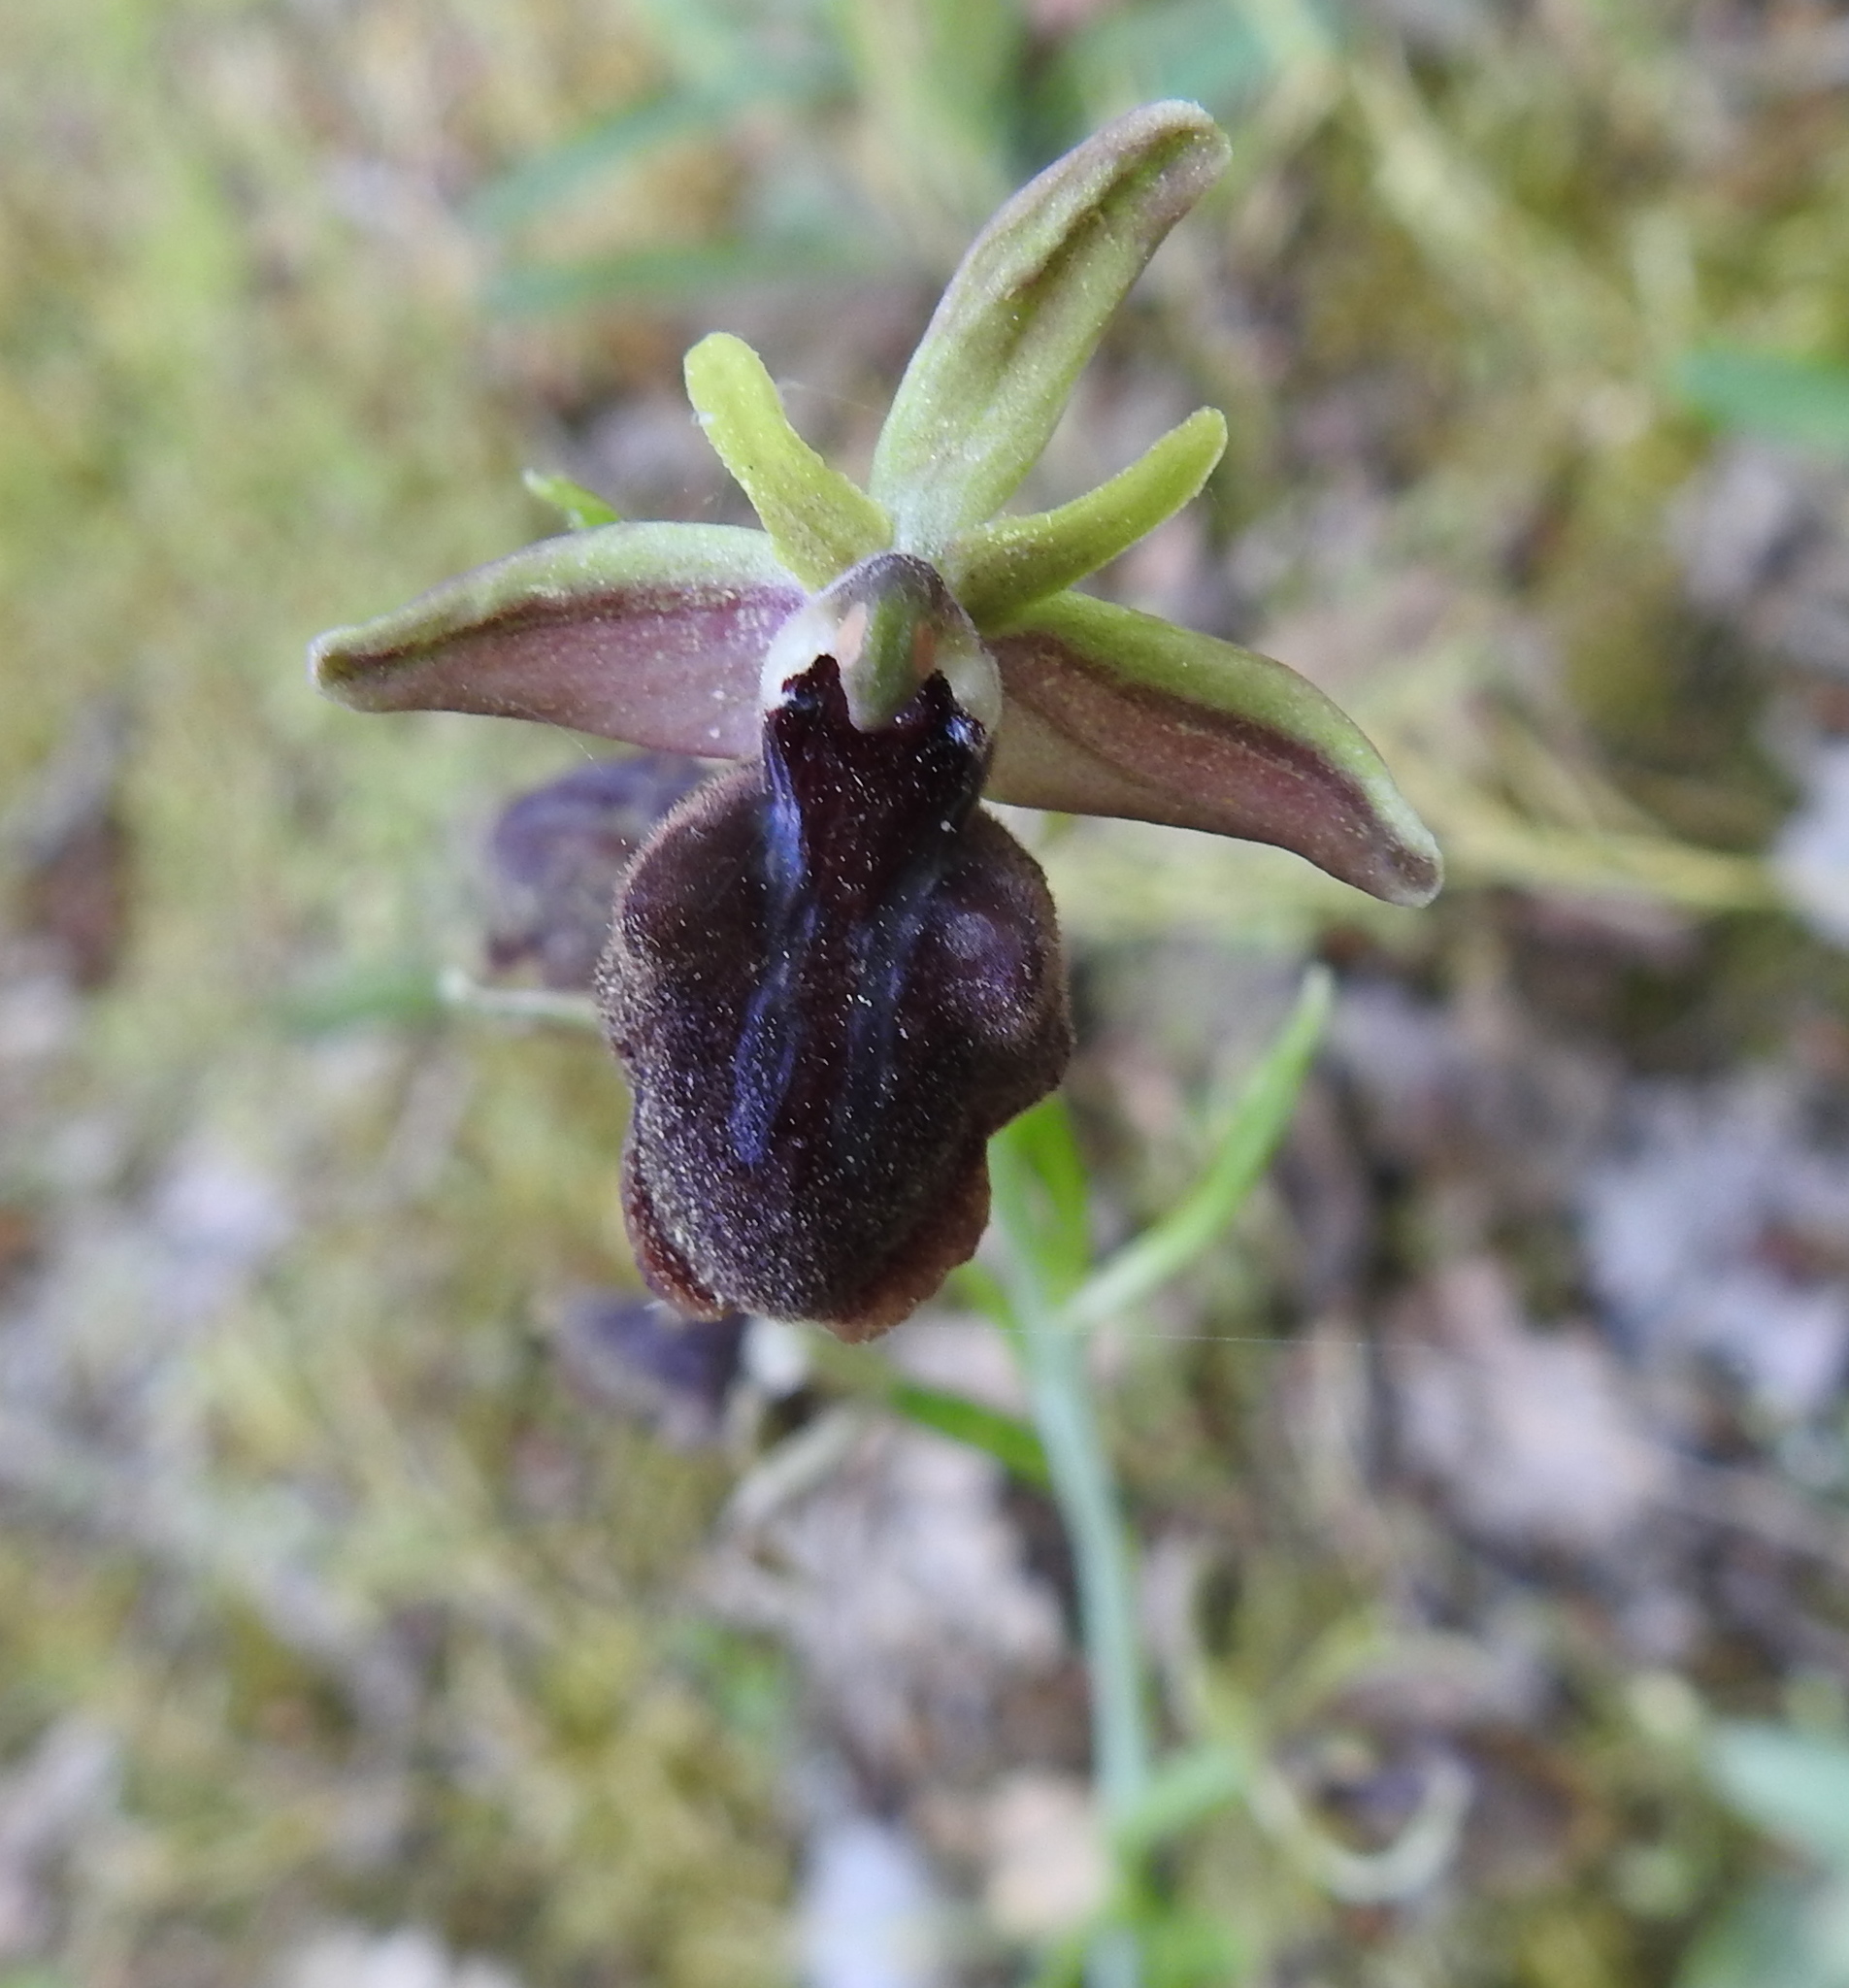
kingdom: Plantae
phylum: Tracheophyta
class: Liliopsida
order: Asparagales
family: Orchidaceae
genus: Ophrys
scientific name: Ophrys sphegodes
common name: Early spider-orchid
